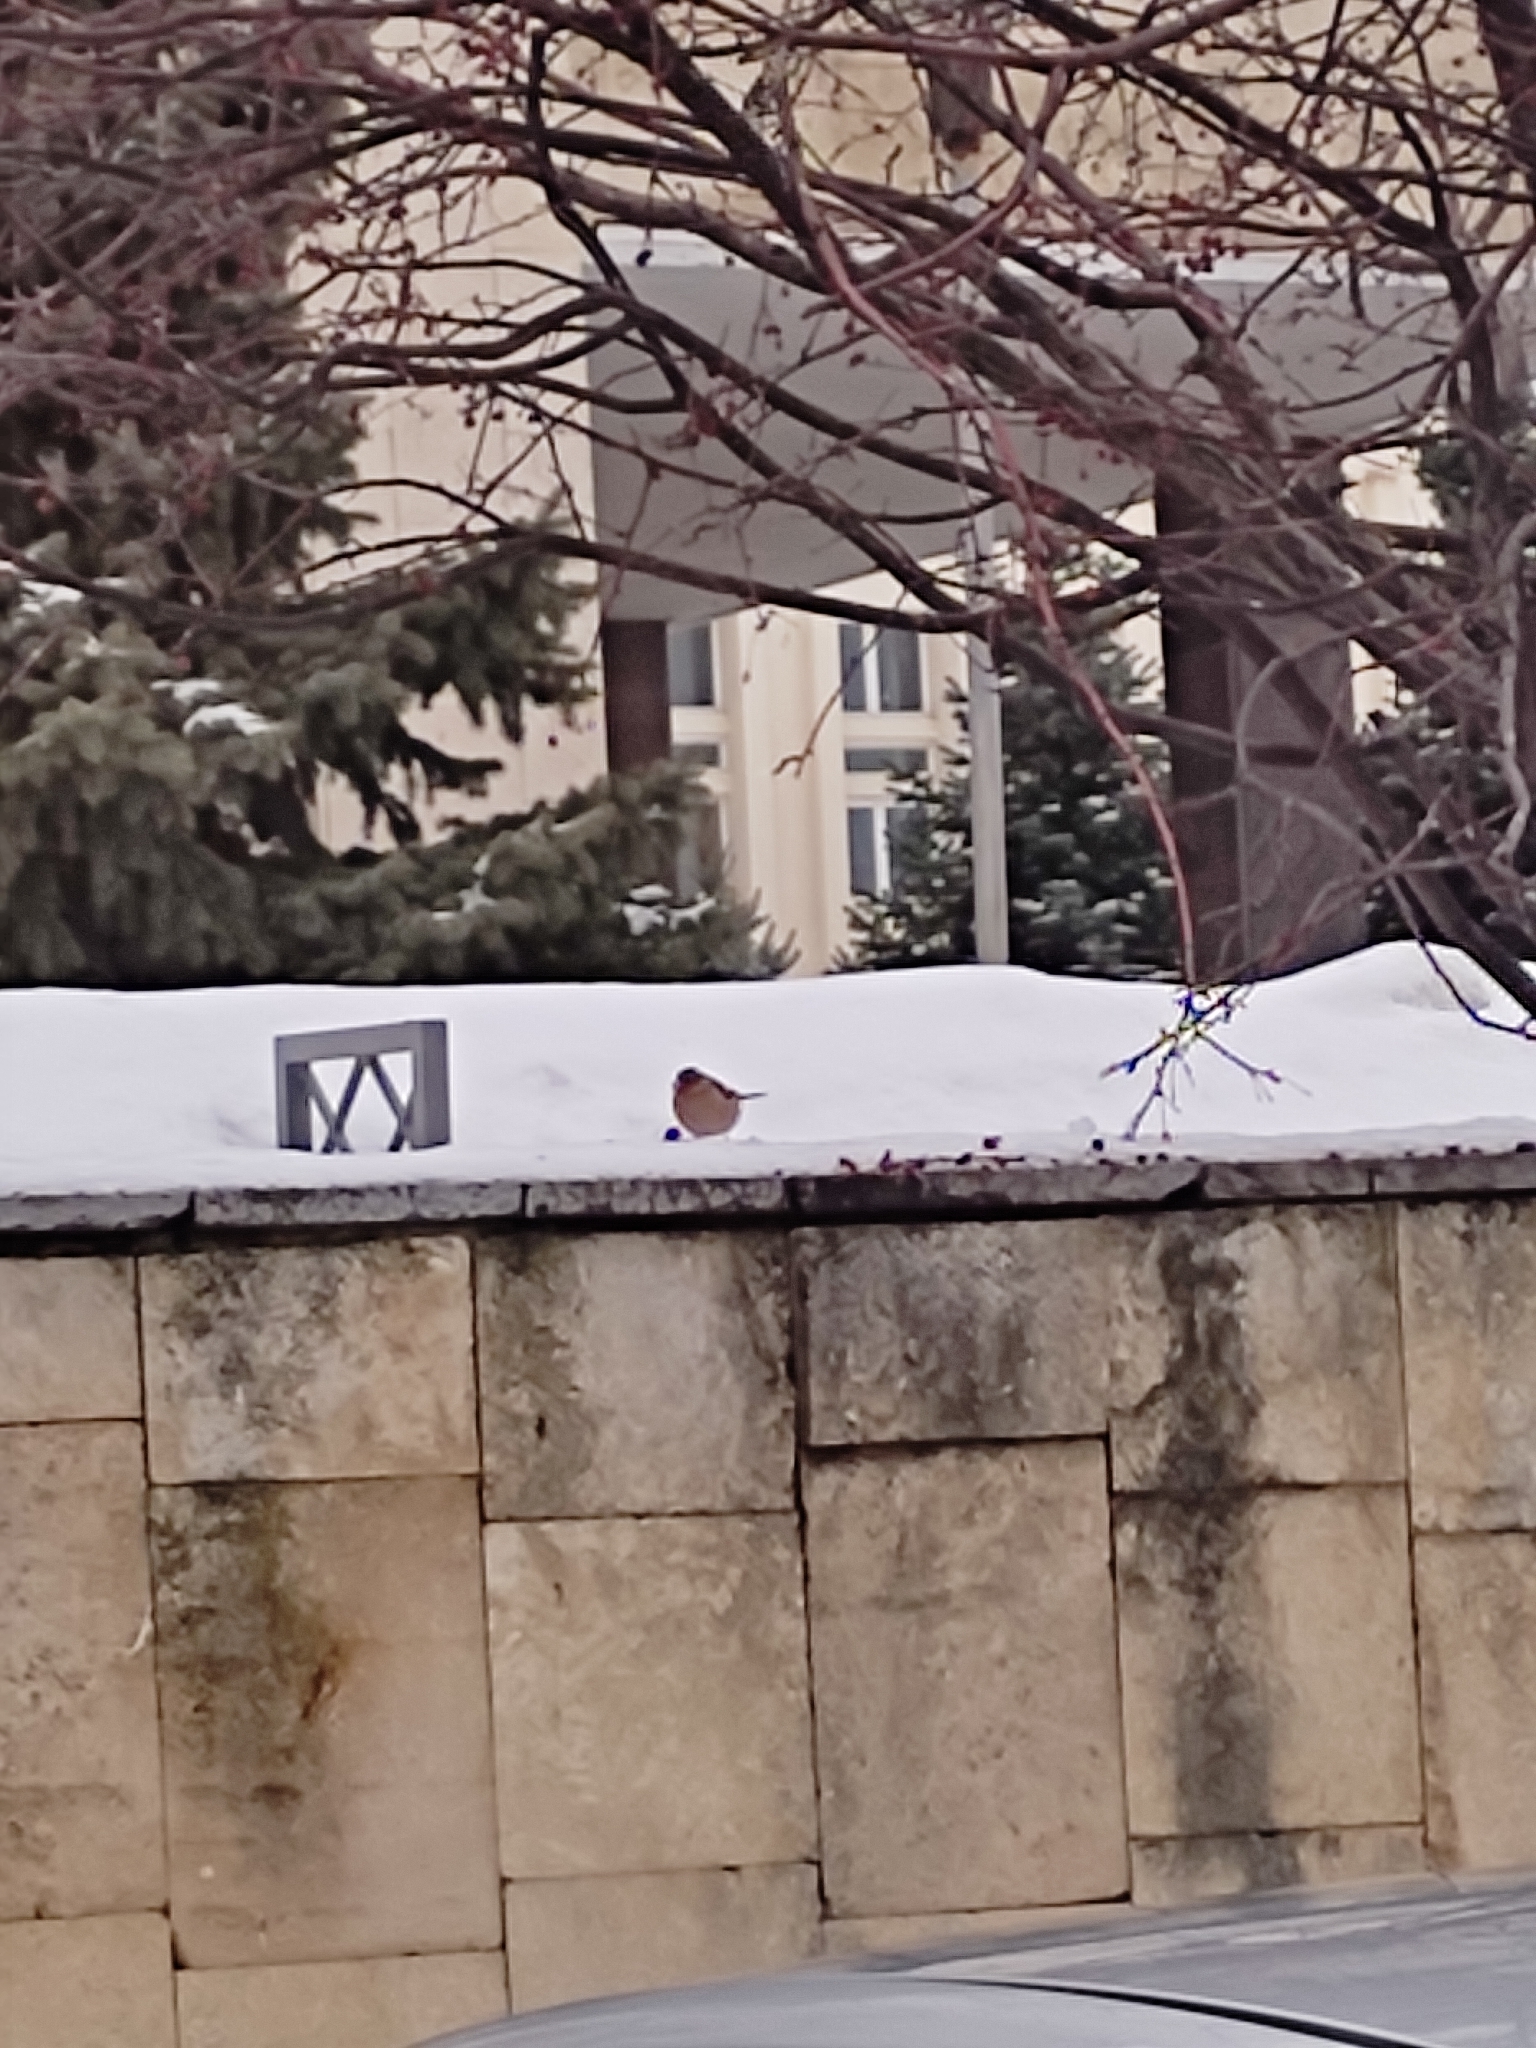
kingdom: Animalia
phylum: Chordata
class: Aves
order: Passeriformes
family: Fringillidae
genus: Fringilla
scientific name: Fringilla coelebs
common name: Common chaffinch
